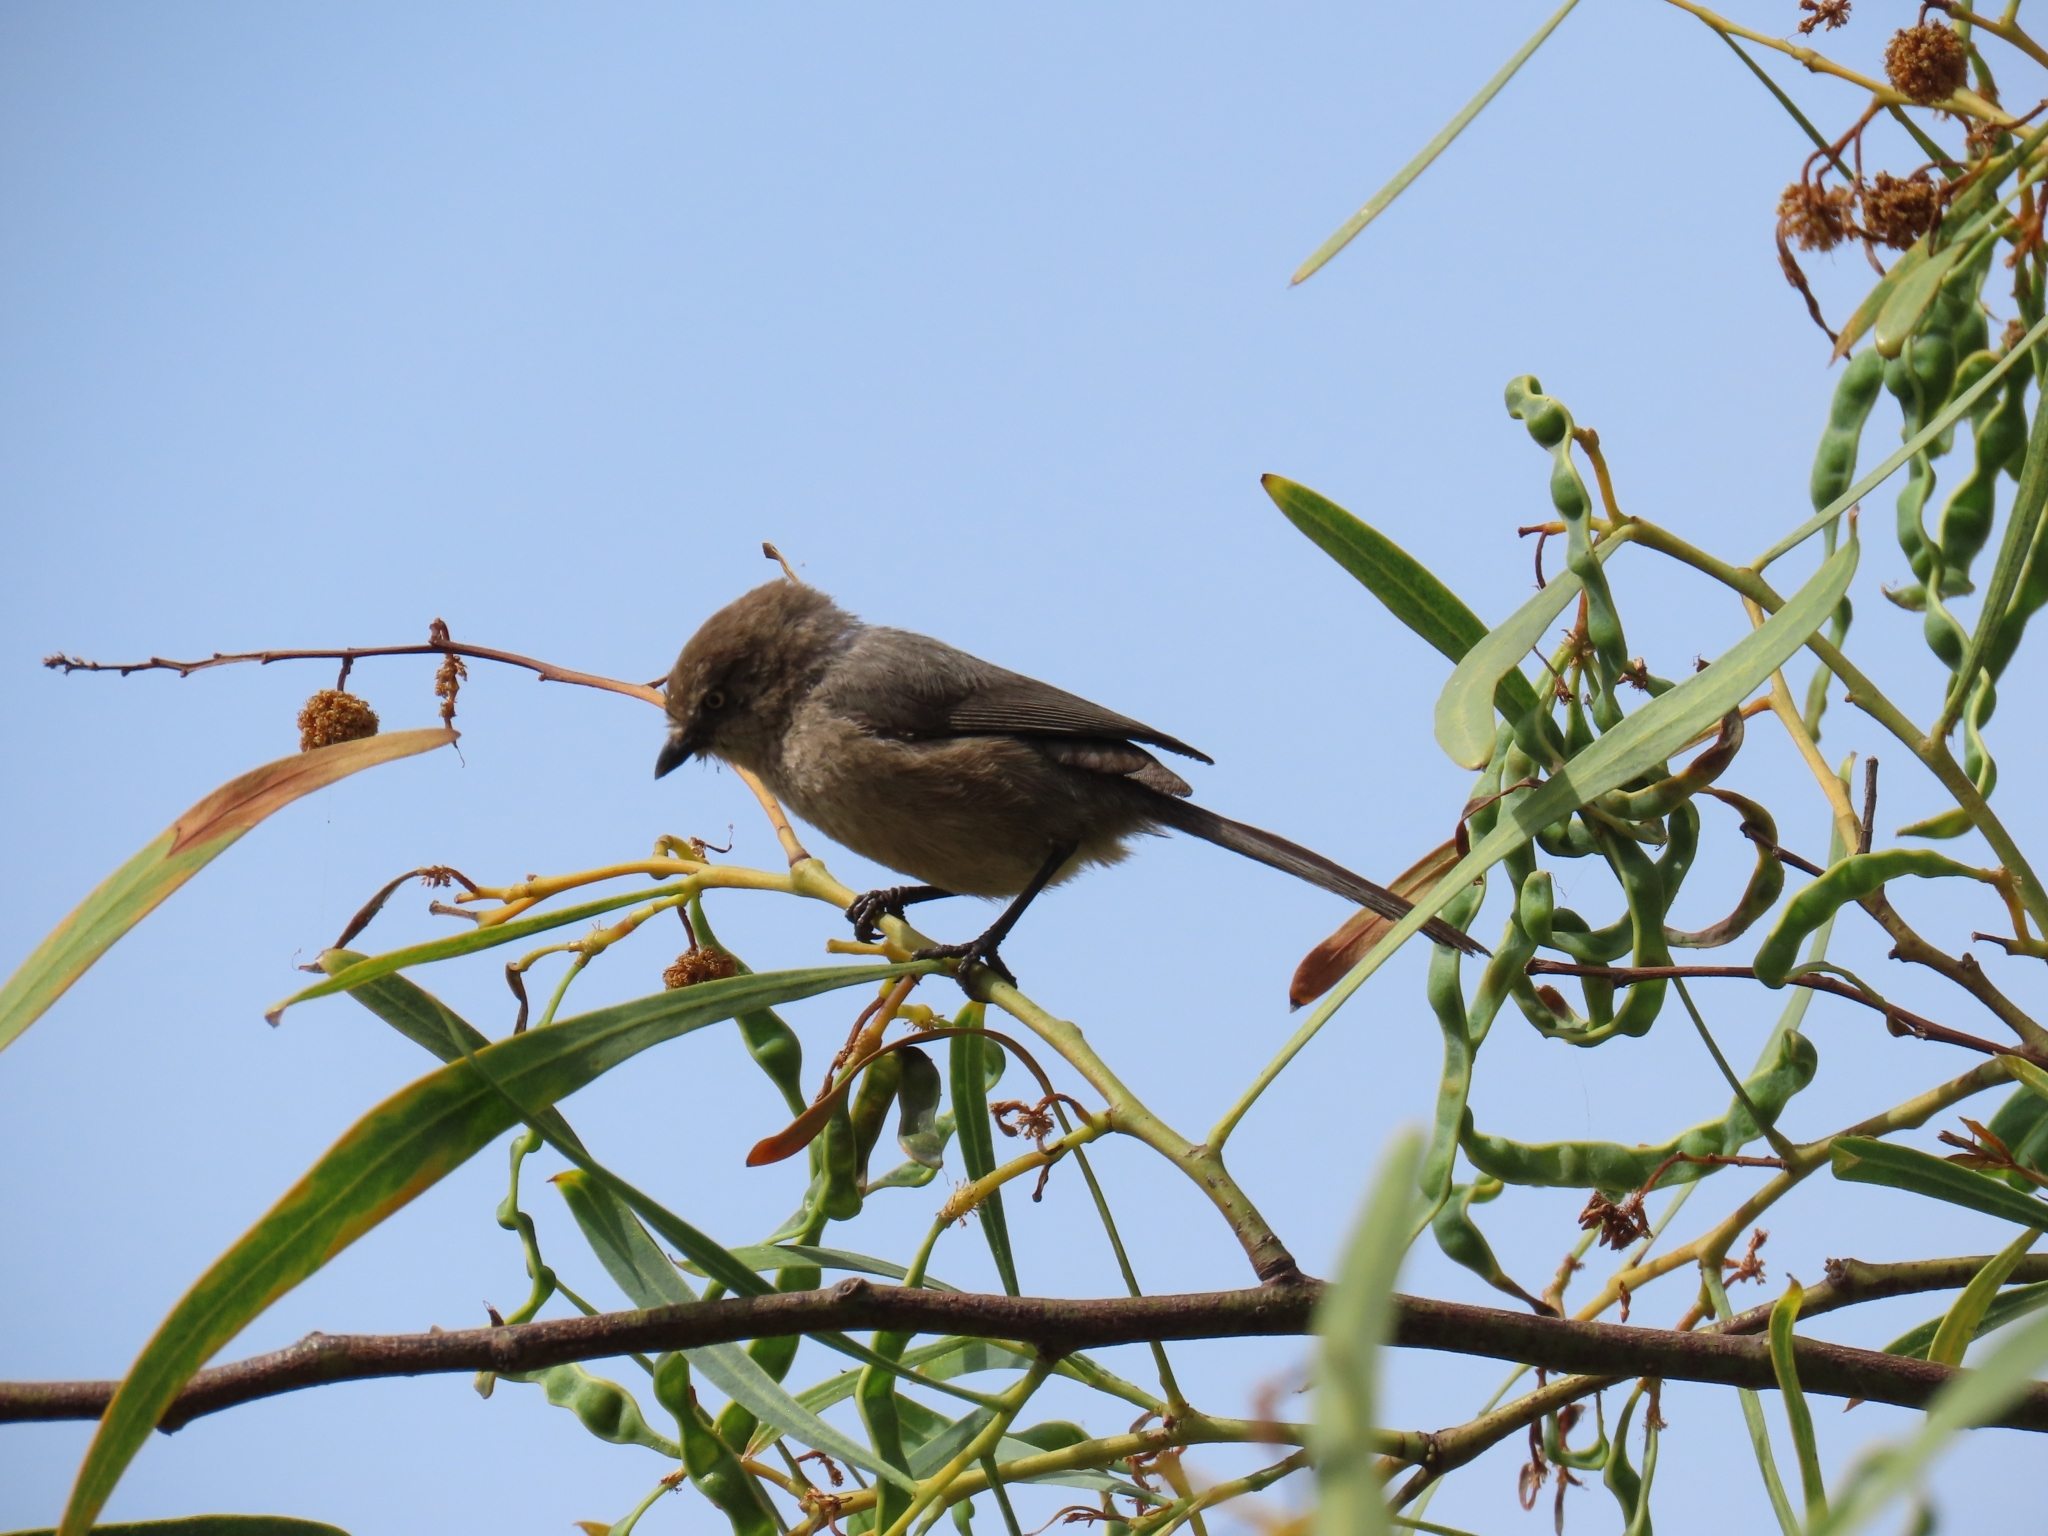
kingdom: Animalia
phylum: Chordata
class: Aves
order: Passeriformes
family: Aegithalidae
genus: Psaltriparus
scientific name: Psaltriparus minimus
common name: American bushtit
